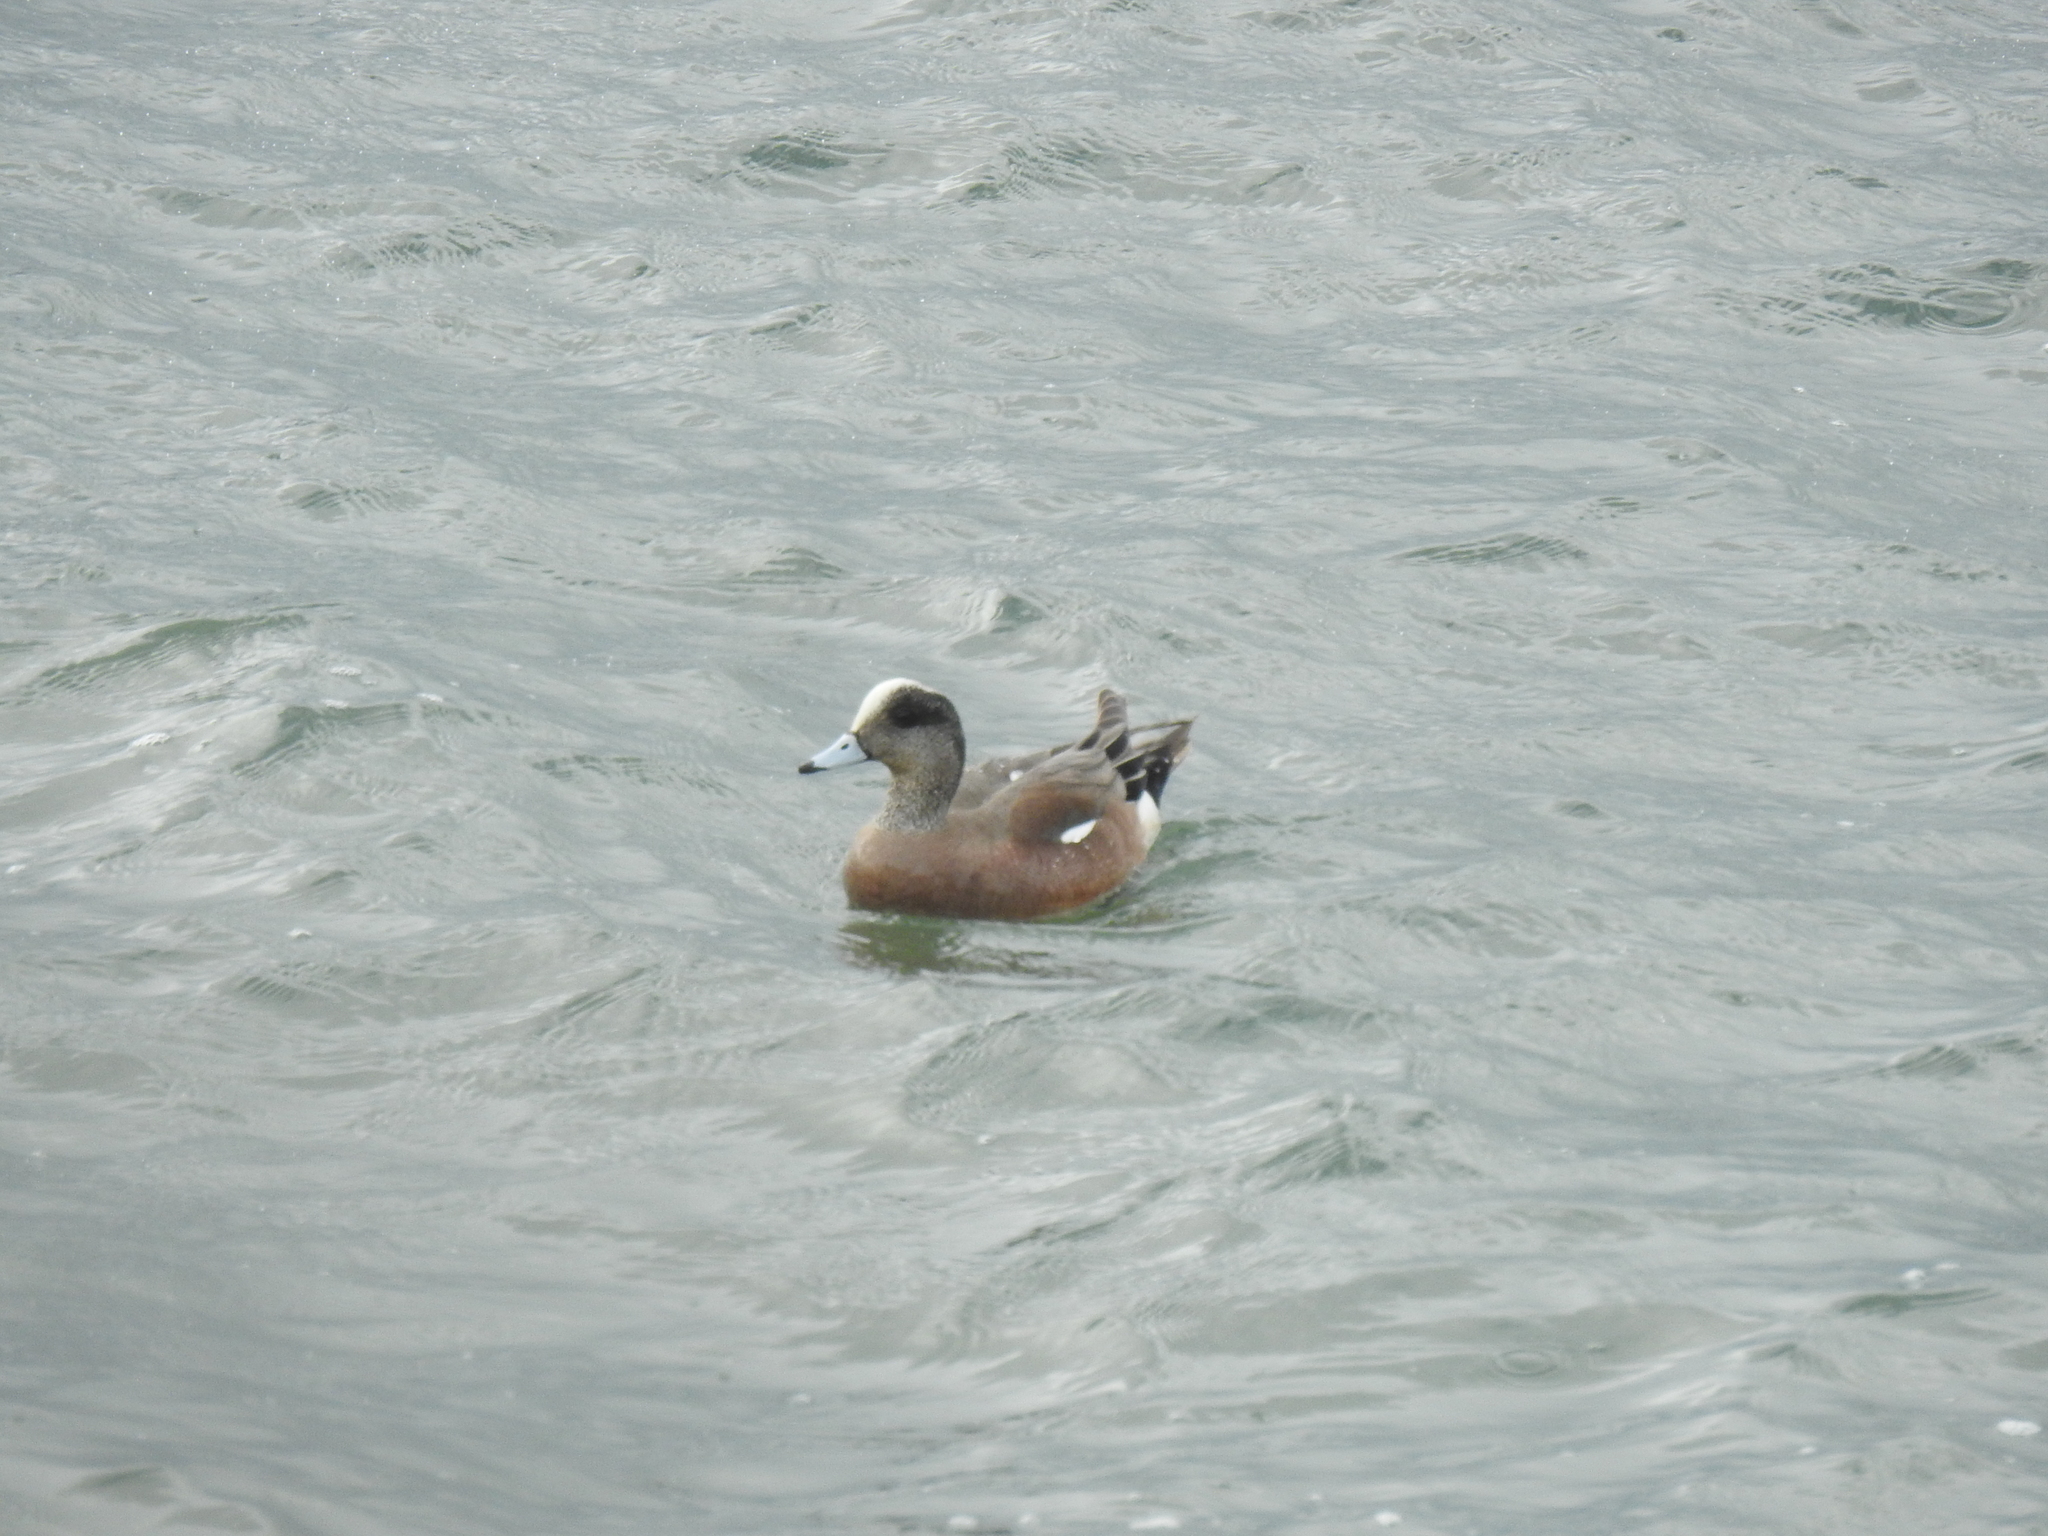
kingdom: Animalia
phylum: Chordata
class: Aves
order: Anseriformes
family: Anatidae
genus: Mareca
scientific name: Mareca americana
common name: American wigeon
